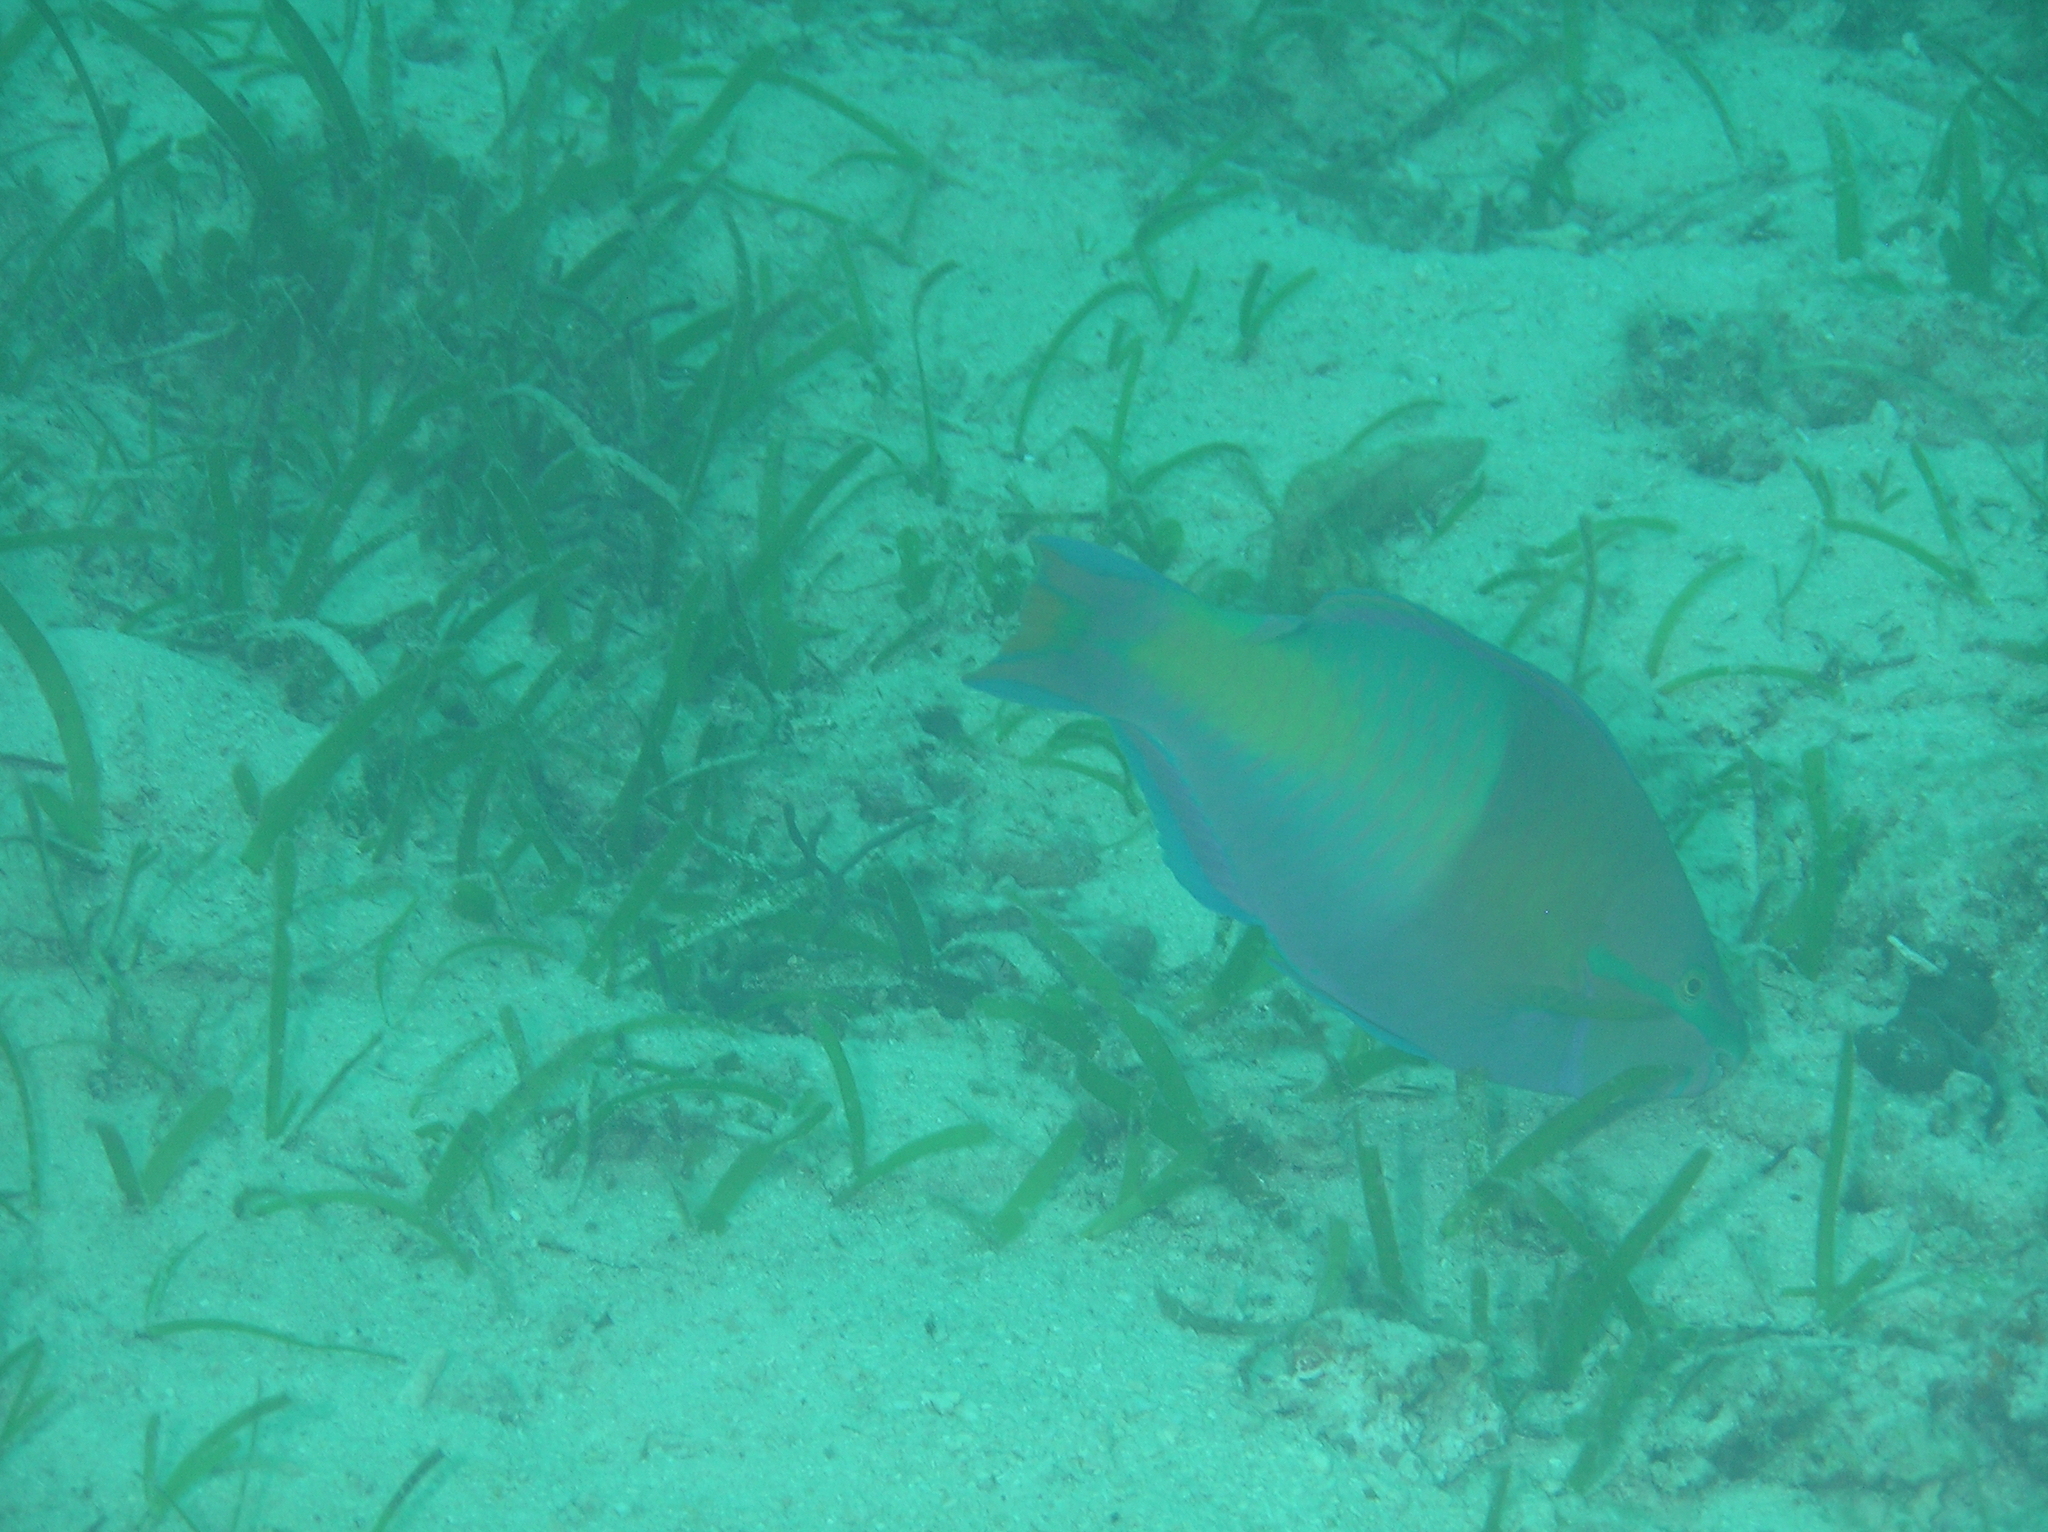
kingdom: Animalia
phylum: Chordata
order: Perciformes
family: Scaridae
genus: Scarus
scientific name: Scarus flavipectoralis
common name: Yellowfin parrotfish
